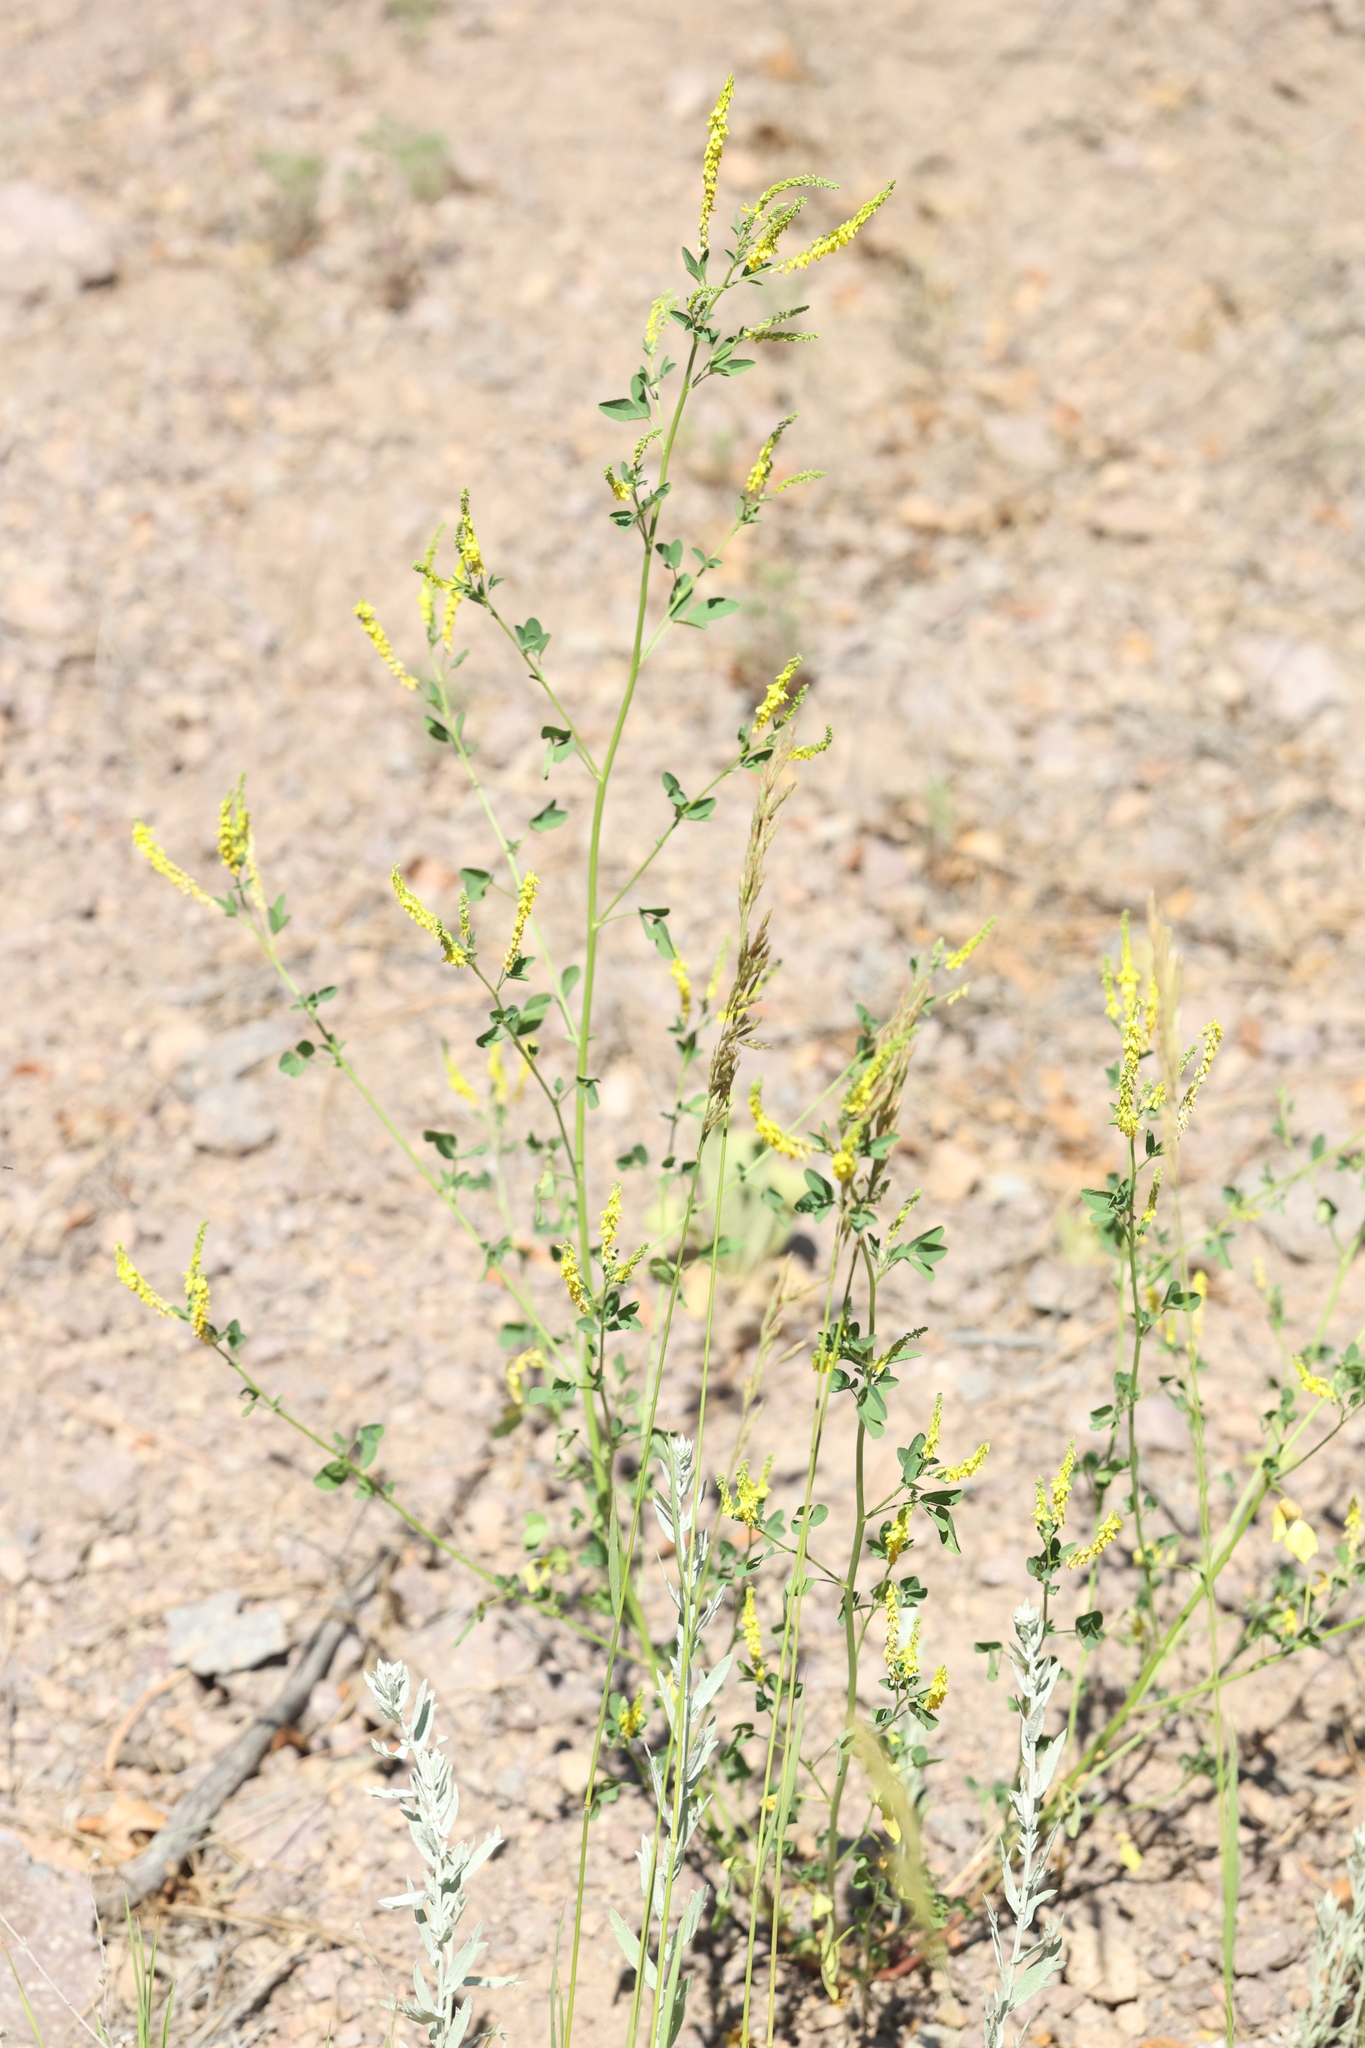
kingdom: Plantae
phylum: Tracheophyta
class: Magnoliopsida
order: Fabales
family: Fabaceae
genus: Melilotus
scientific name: Melilotus officinalis
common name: Sweetclover
